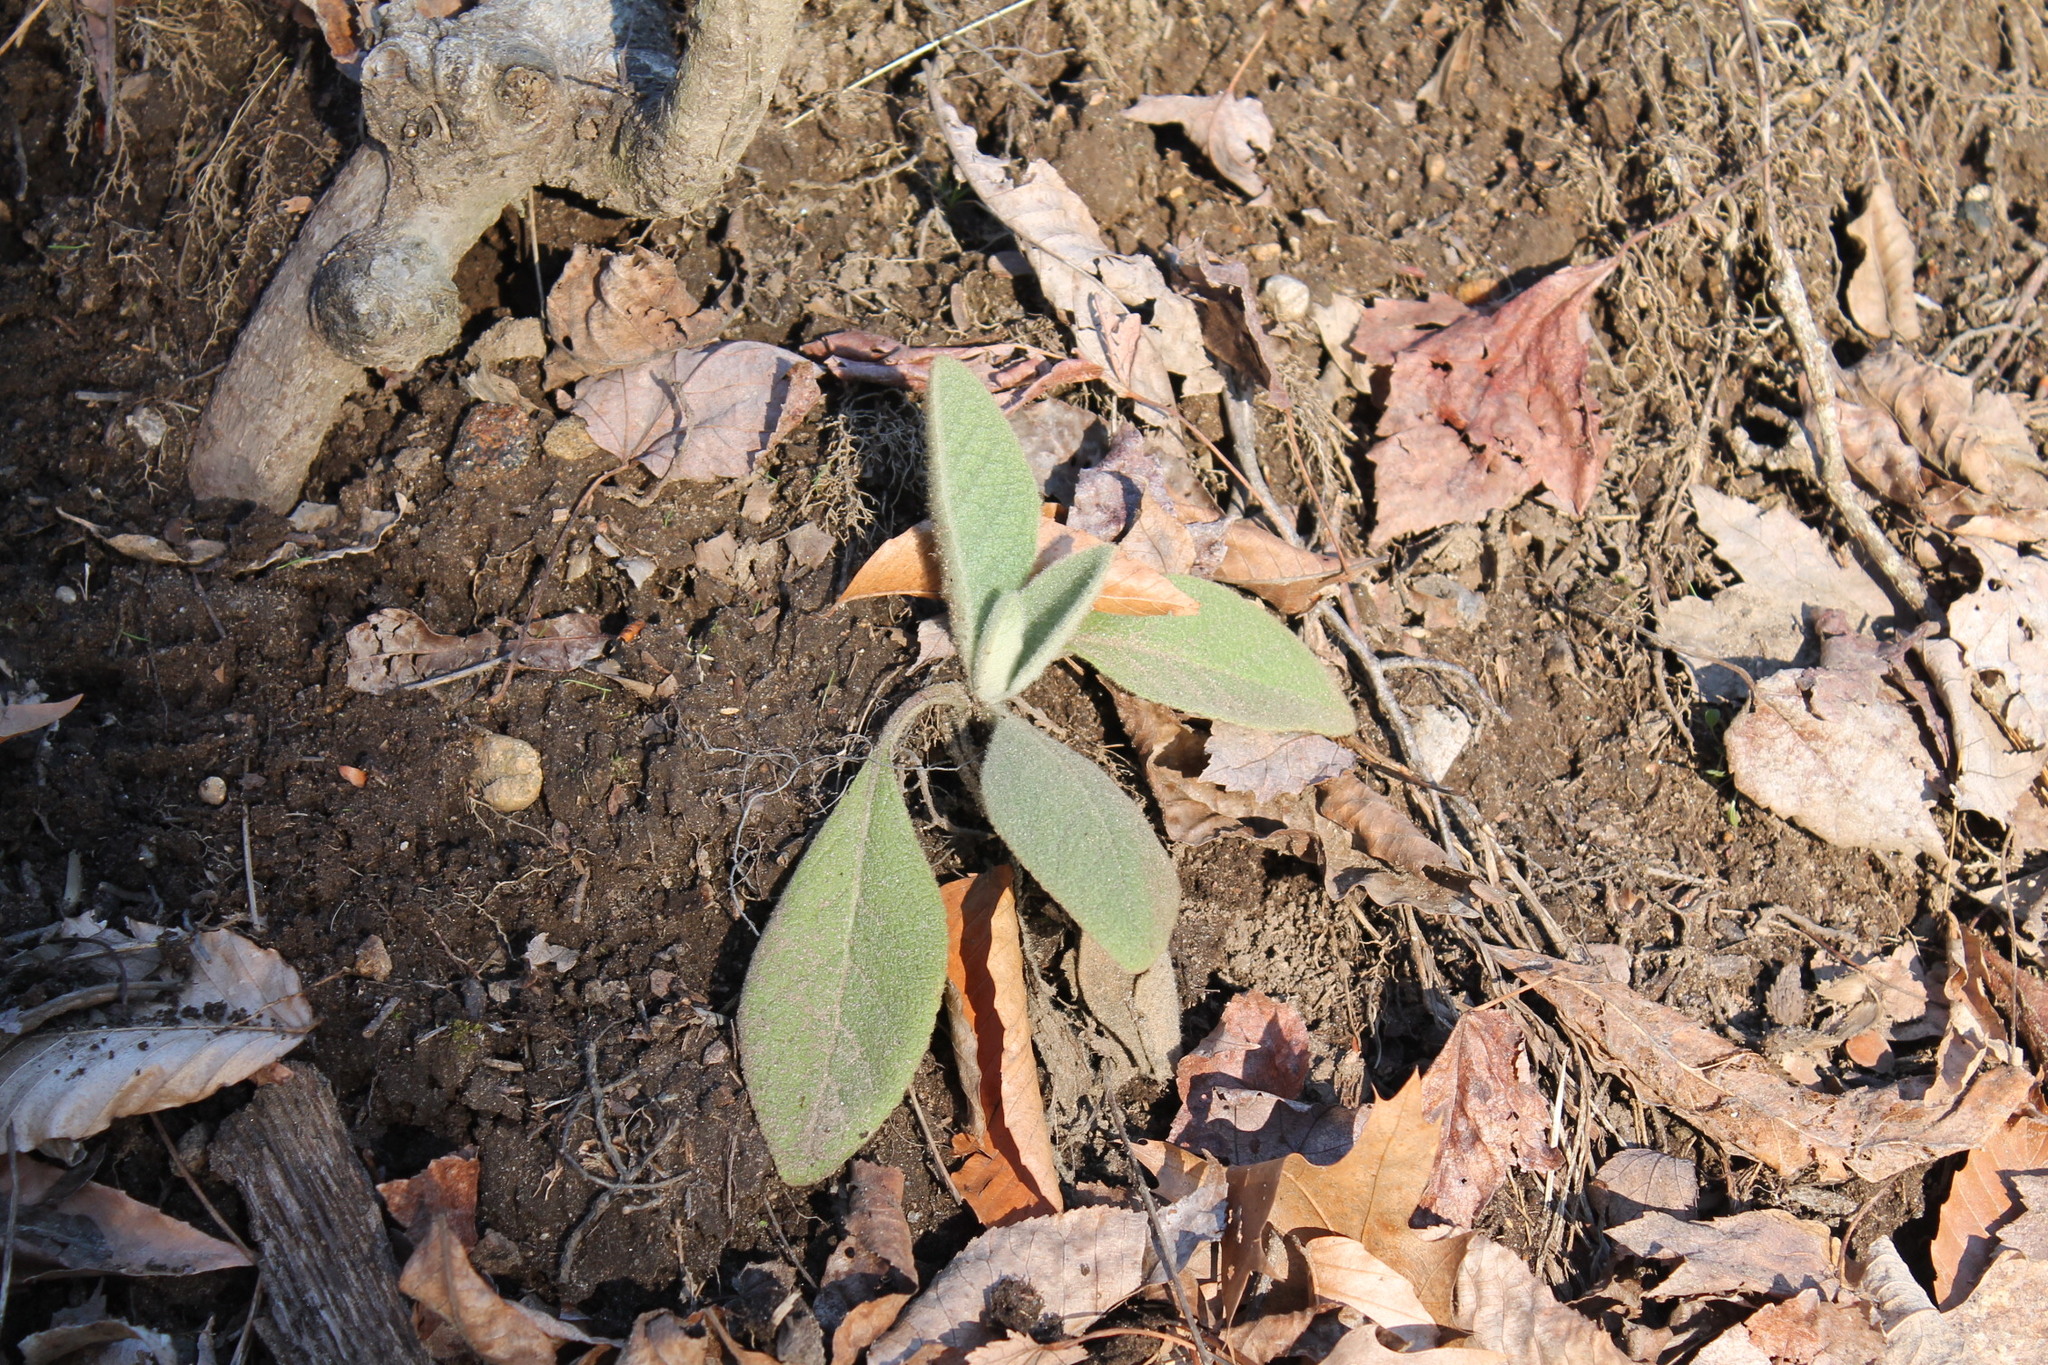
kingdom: Plantae
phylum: Tracheophyta
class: Magnoliopsida
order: Lamiales
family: Scrophulariaceae
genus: Verbascum
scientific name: Verbascum thapsus
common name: Common mullein
